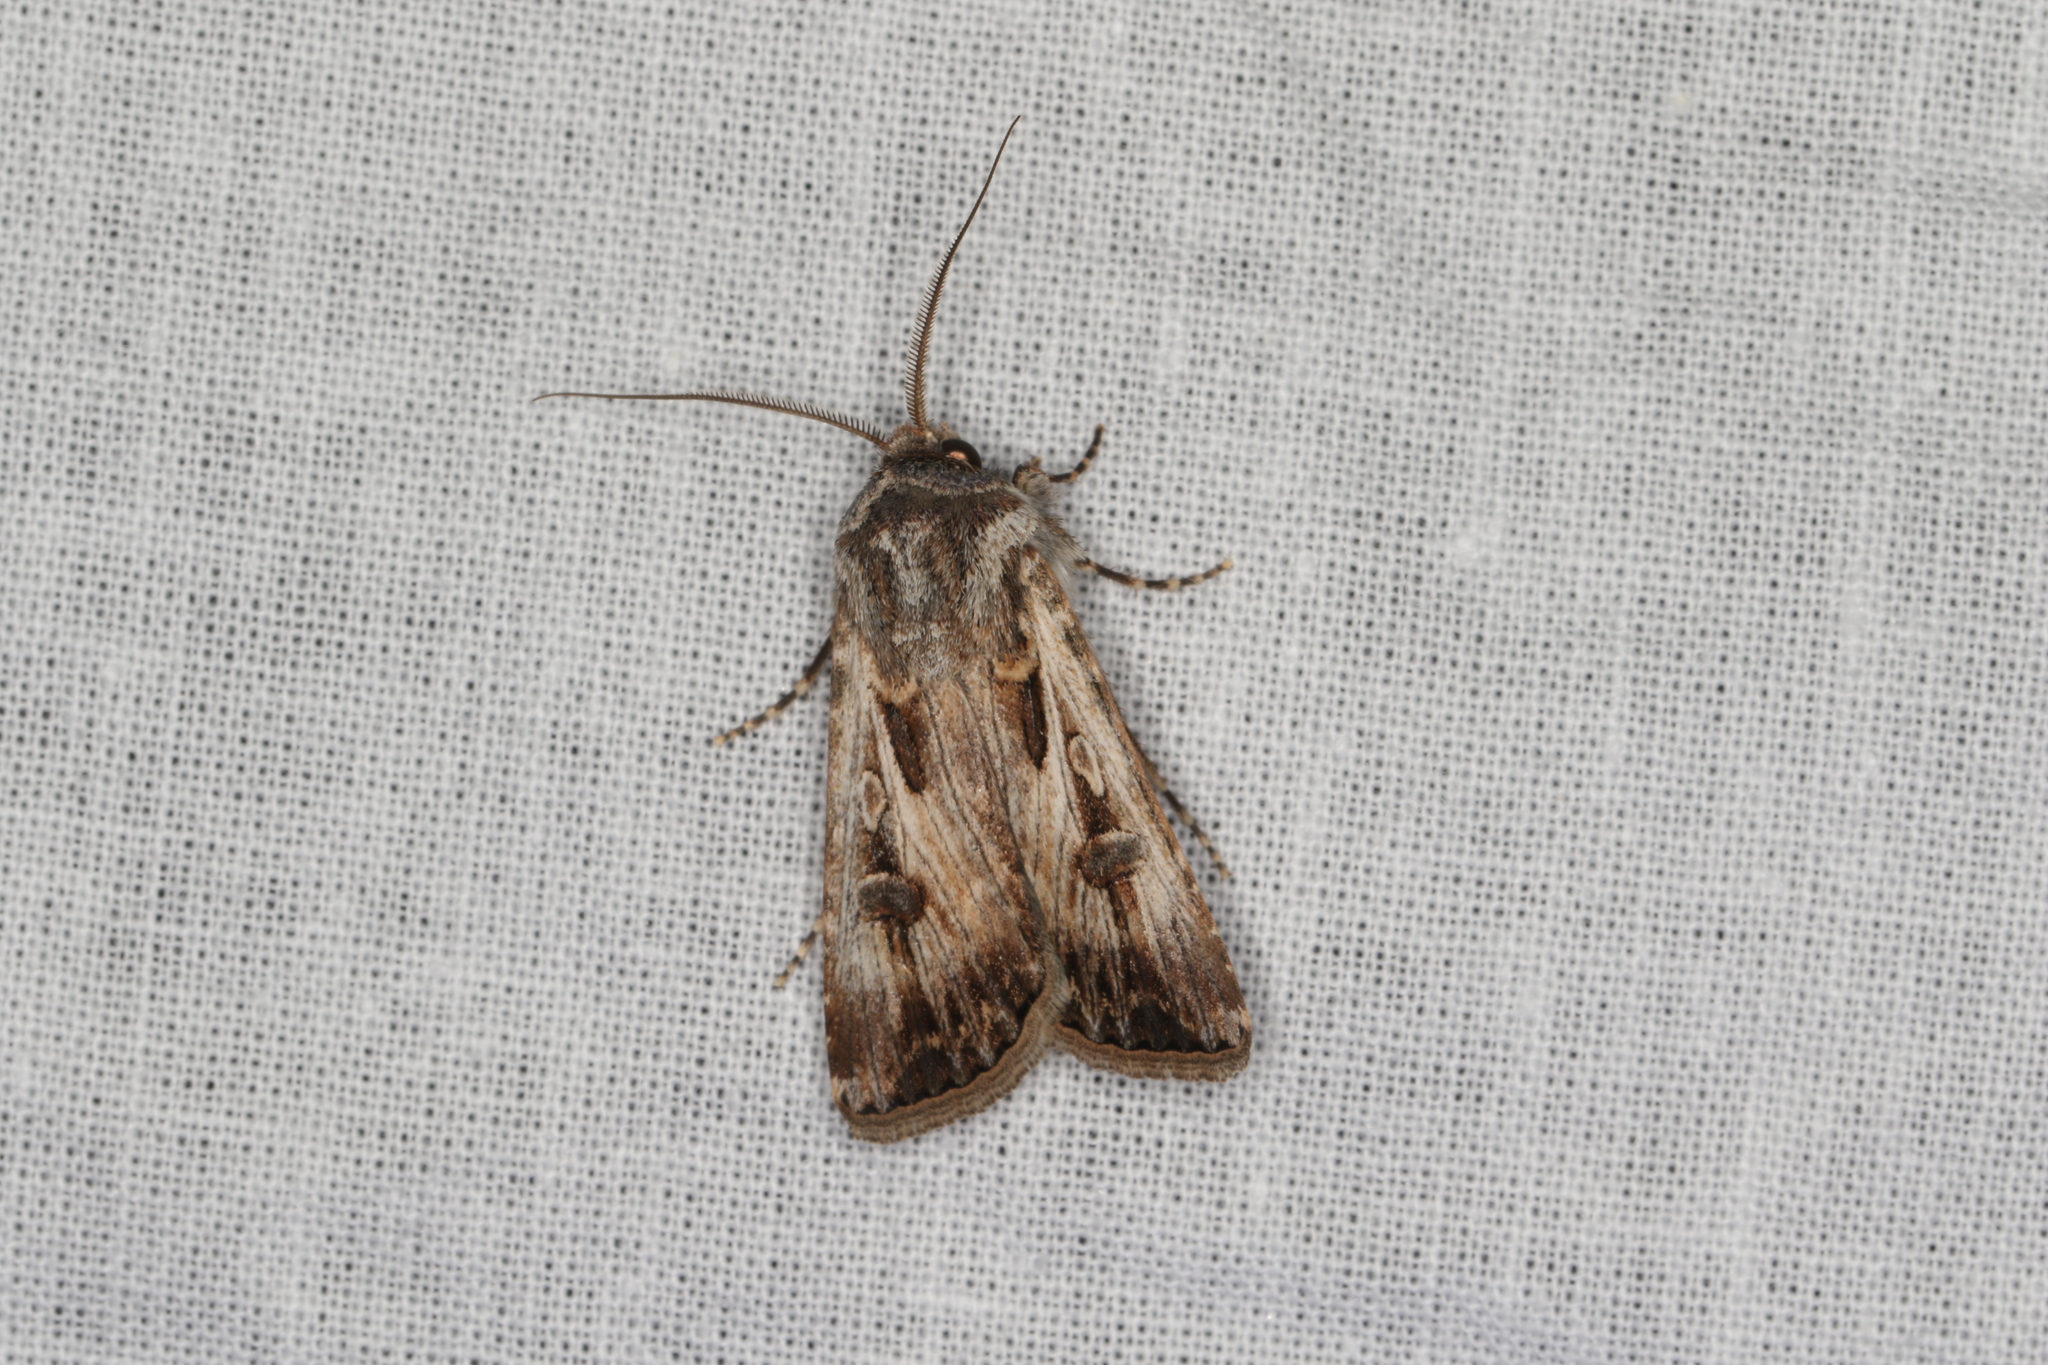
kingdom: Animalia
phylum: Arthropoda
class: Insecta
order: Lepidoptera
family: Noctuidae
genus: Agrotis
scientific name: Agrotis munda
